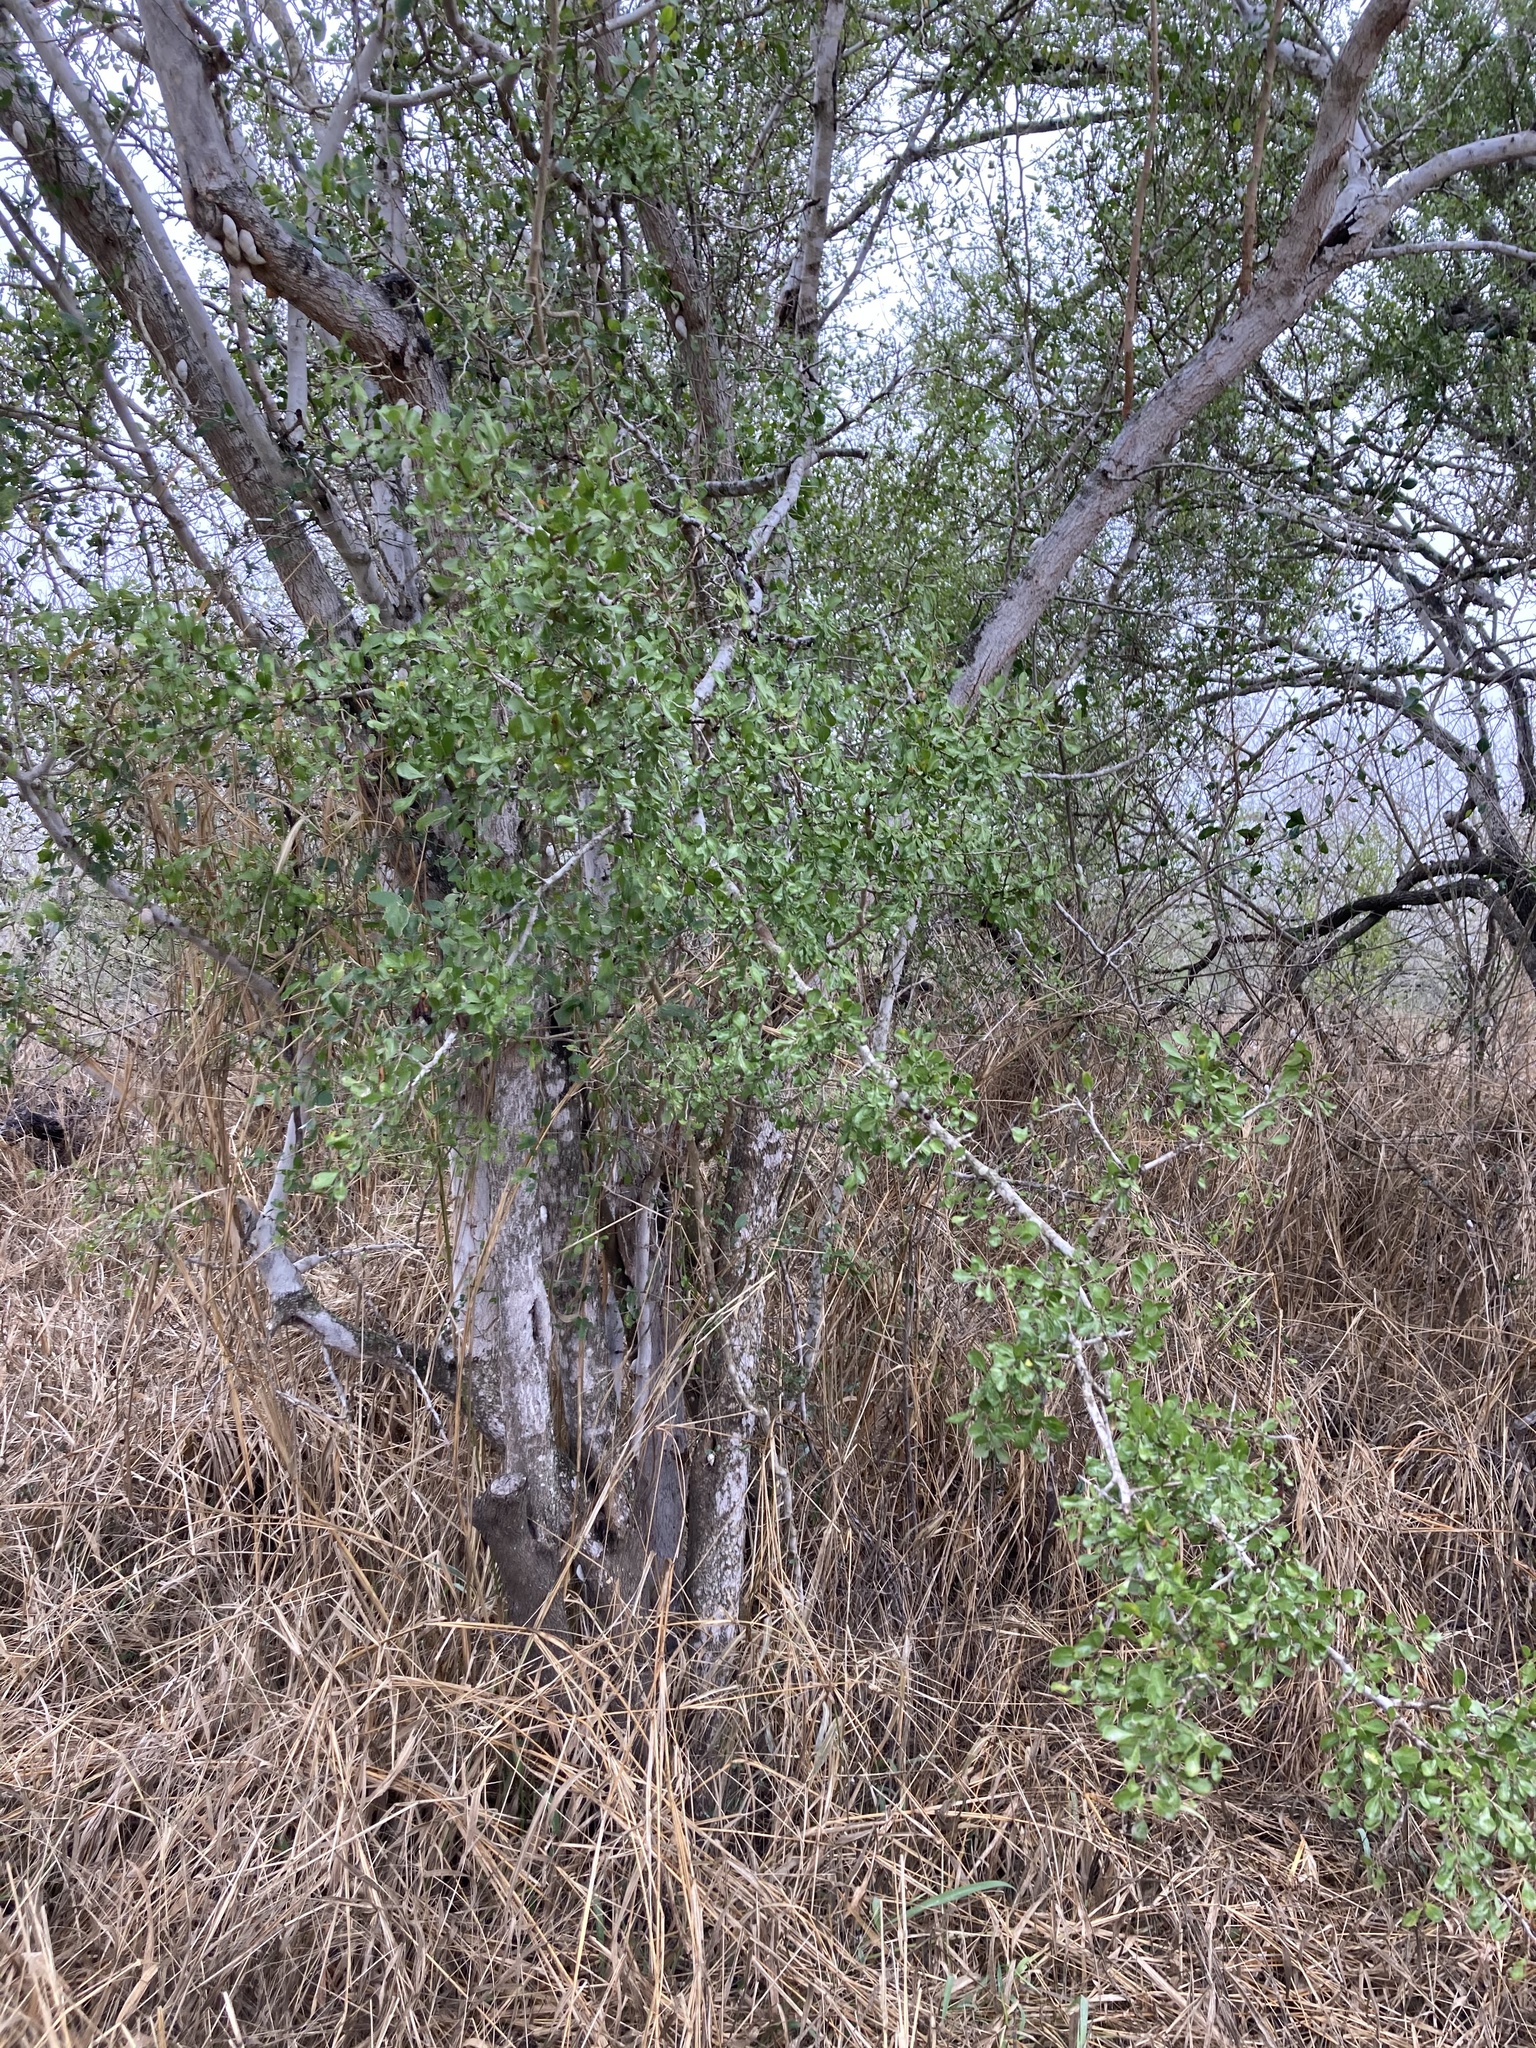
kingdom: Plantae
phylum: Tracheophyta
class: Magnoliopsida
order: Rosales
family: Rhamnaceae
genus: Condalia
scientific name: Condalia hookeri
